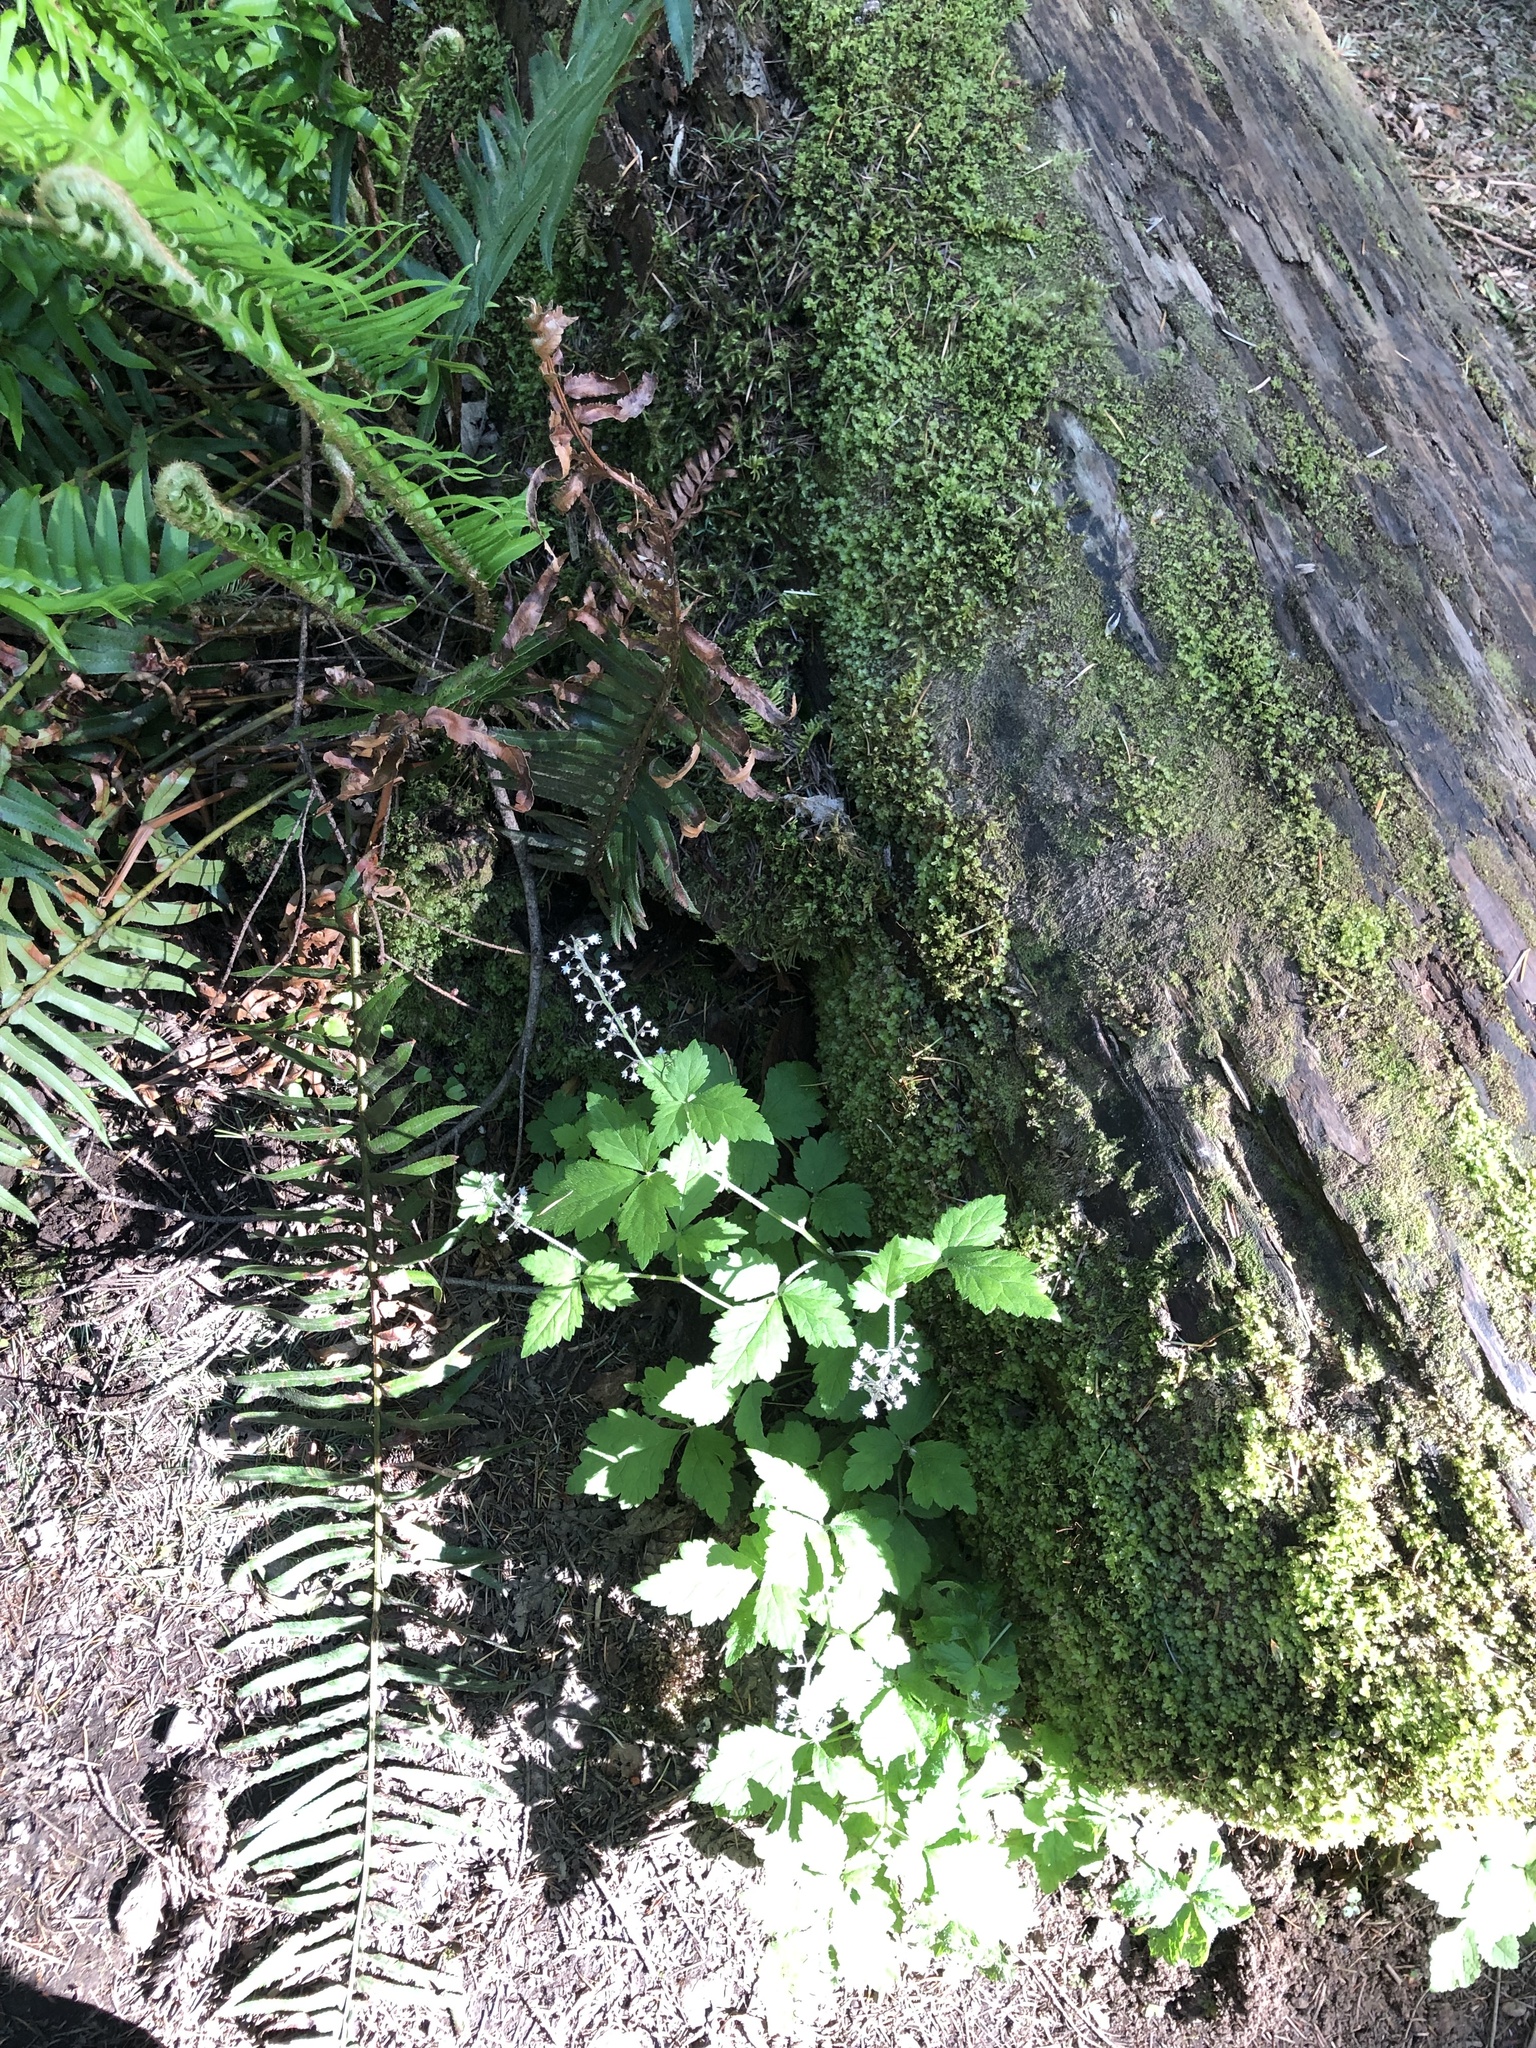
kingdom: Plantae
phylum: Tracheophyta
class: Magnoliopsida
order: Saxifragales
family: Saxifragaceae
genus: Tiarella
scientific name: Tiarella trifoliata
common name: Sugar-scoop
